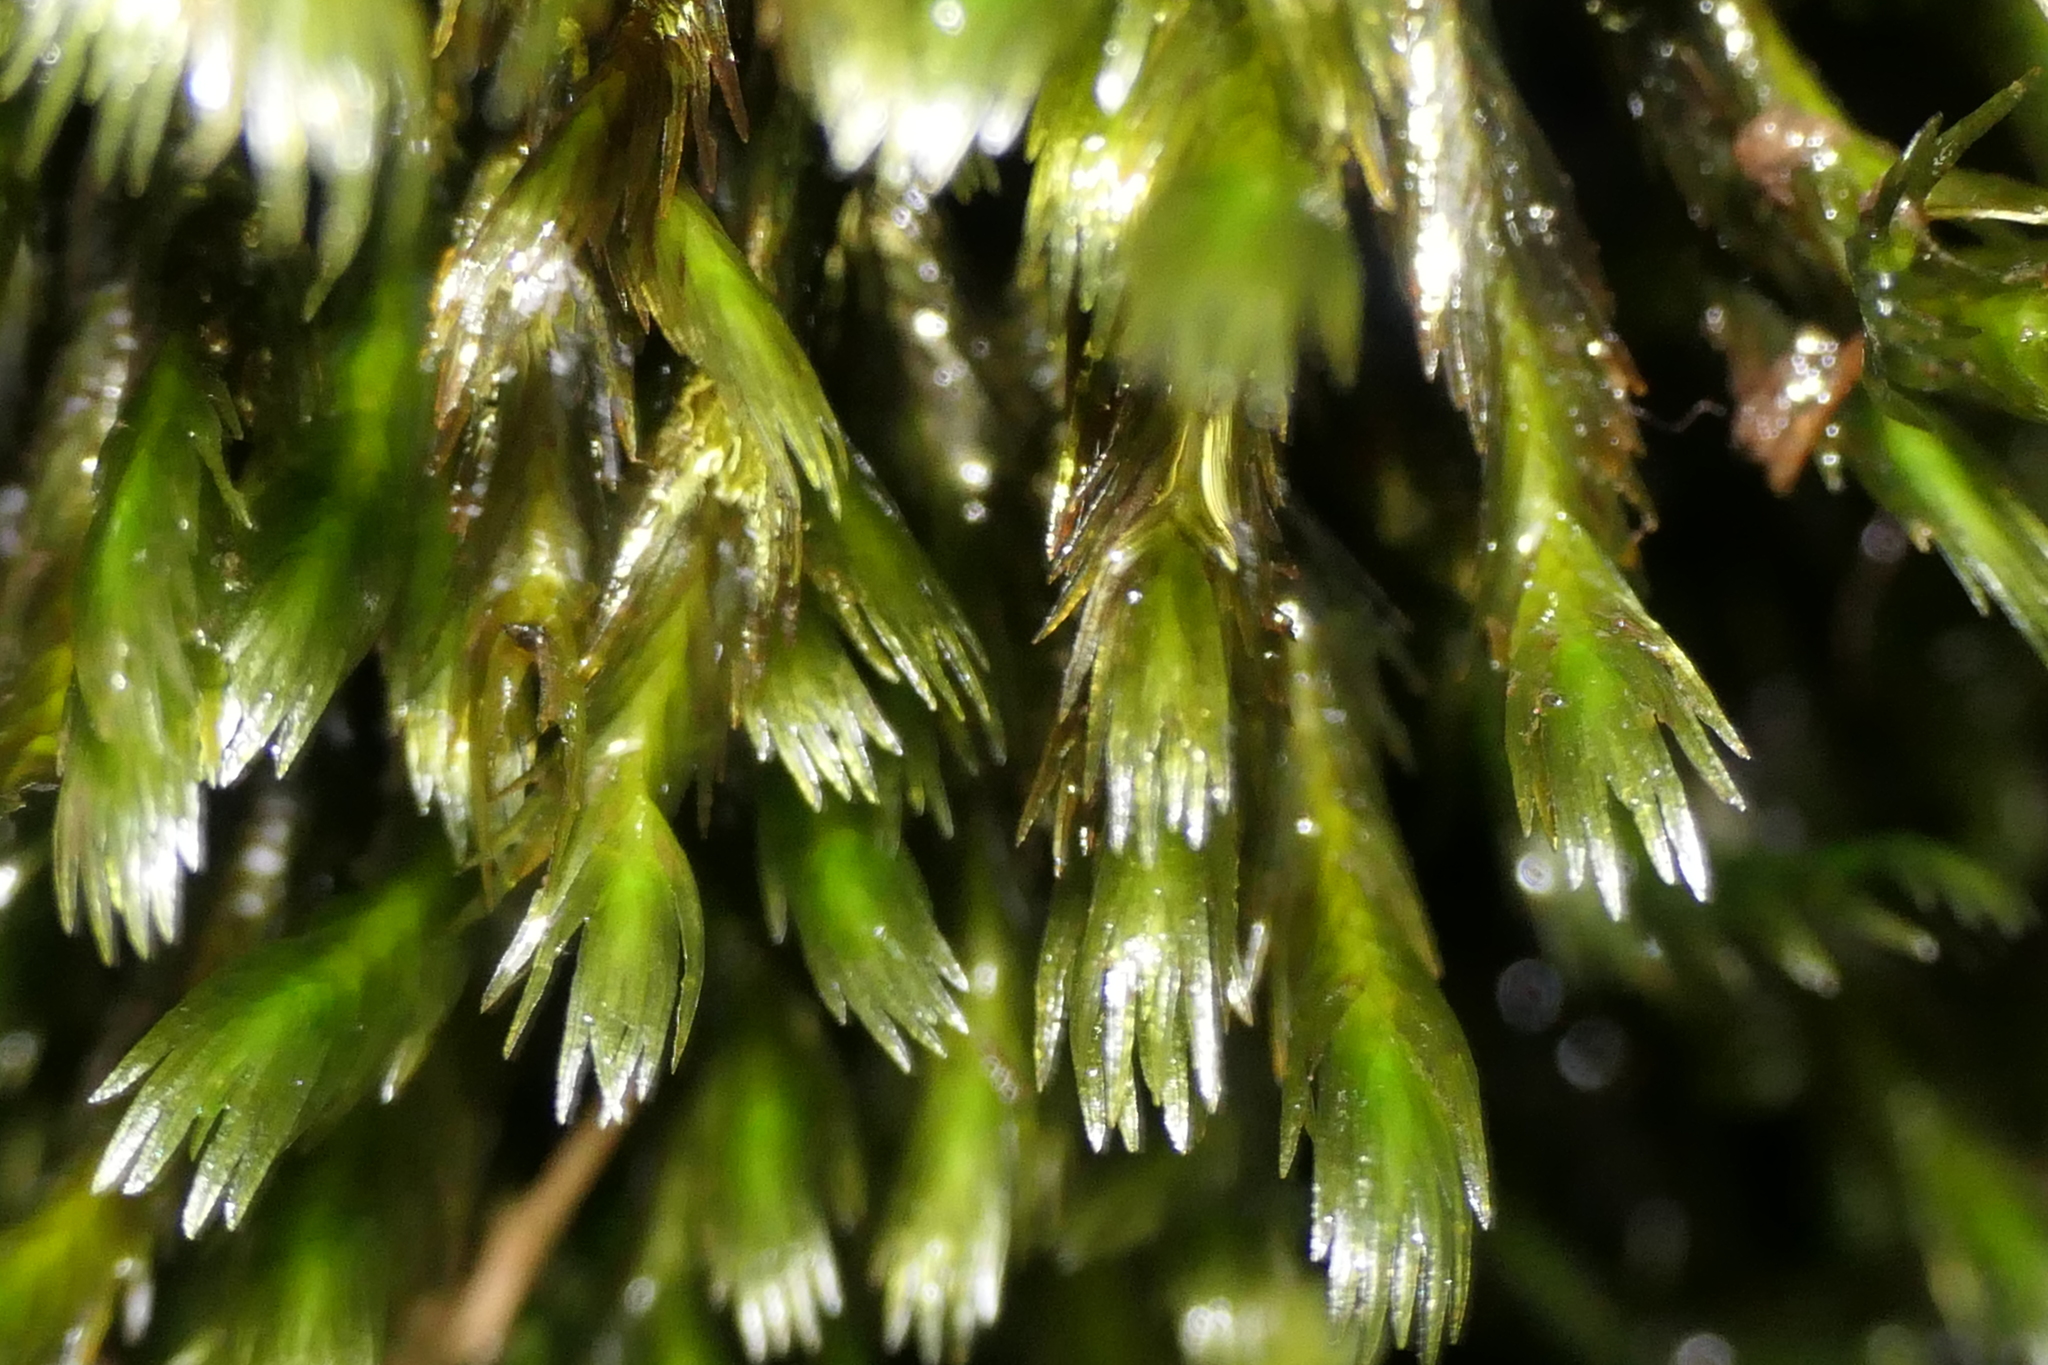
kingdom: Plantae
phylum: Bryophyta
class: Bryopsida
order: Dicranales
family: Fissidentaceae
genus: Fissidens
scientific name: Fissidens grandifrons
